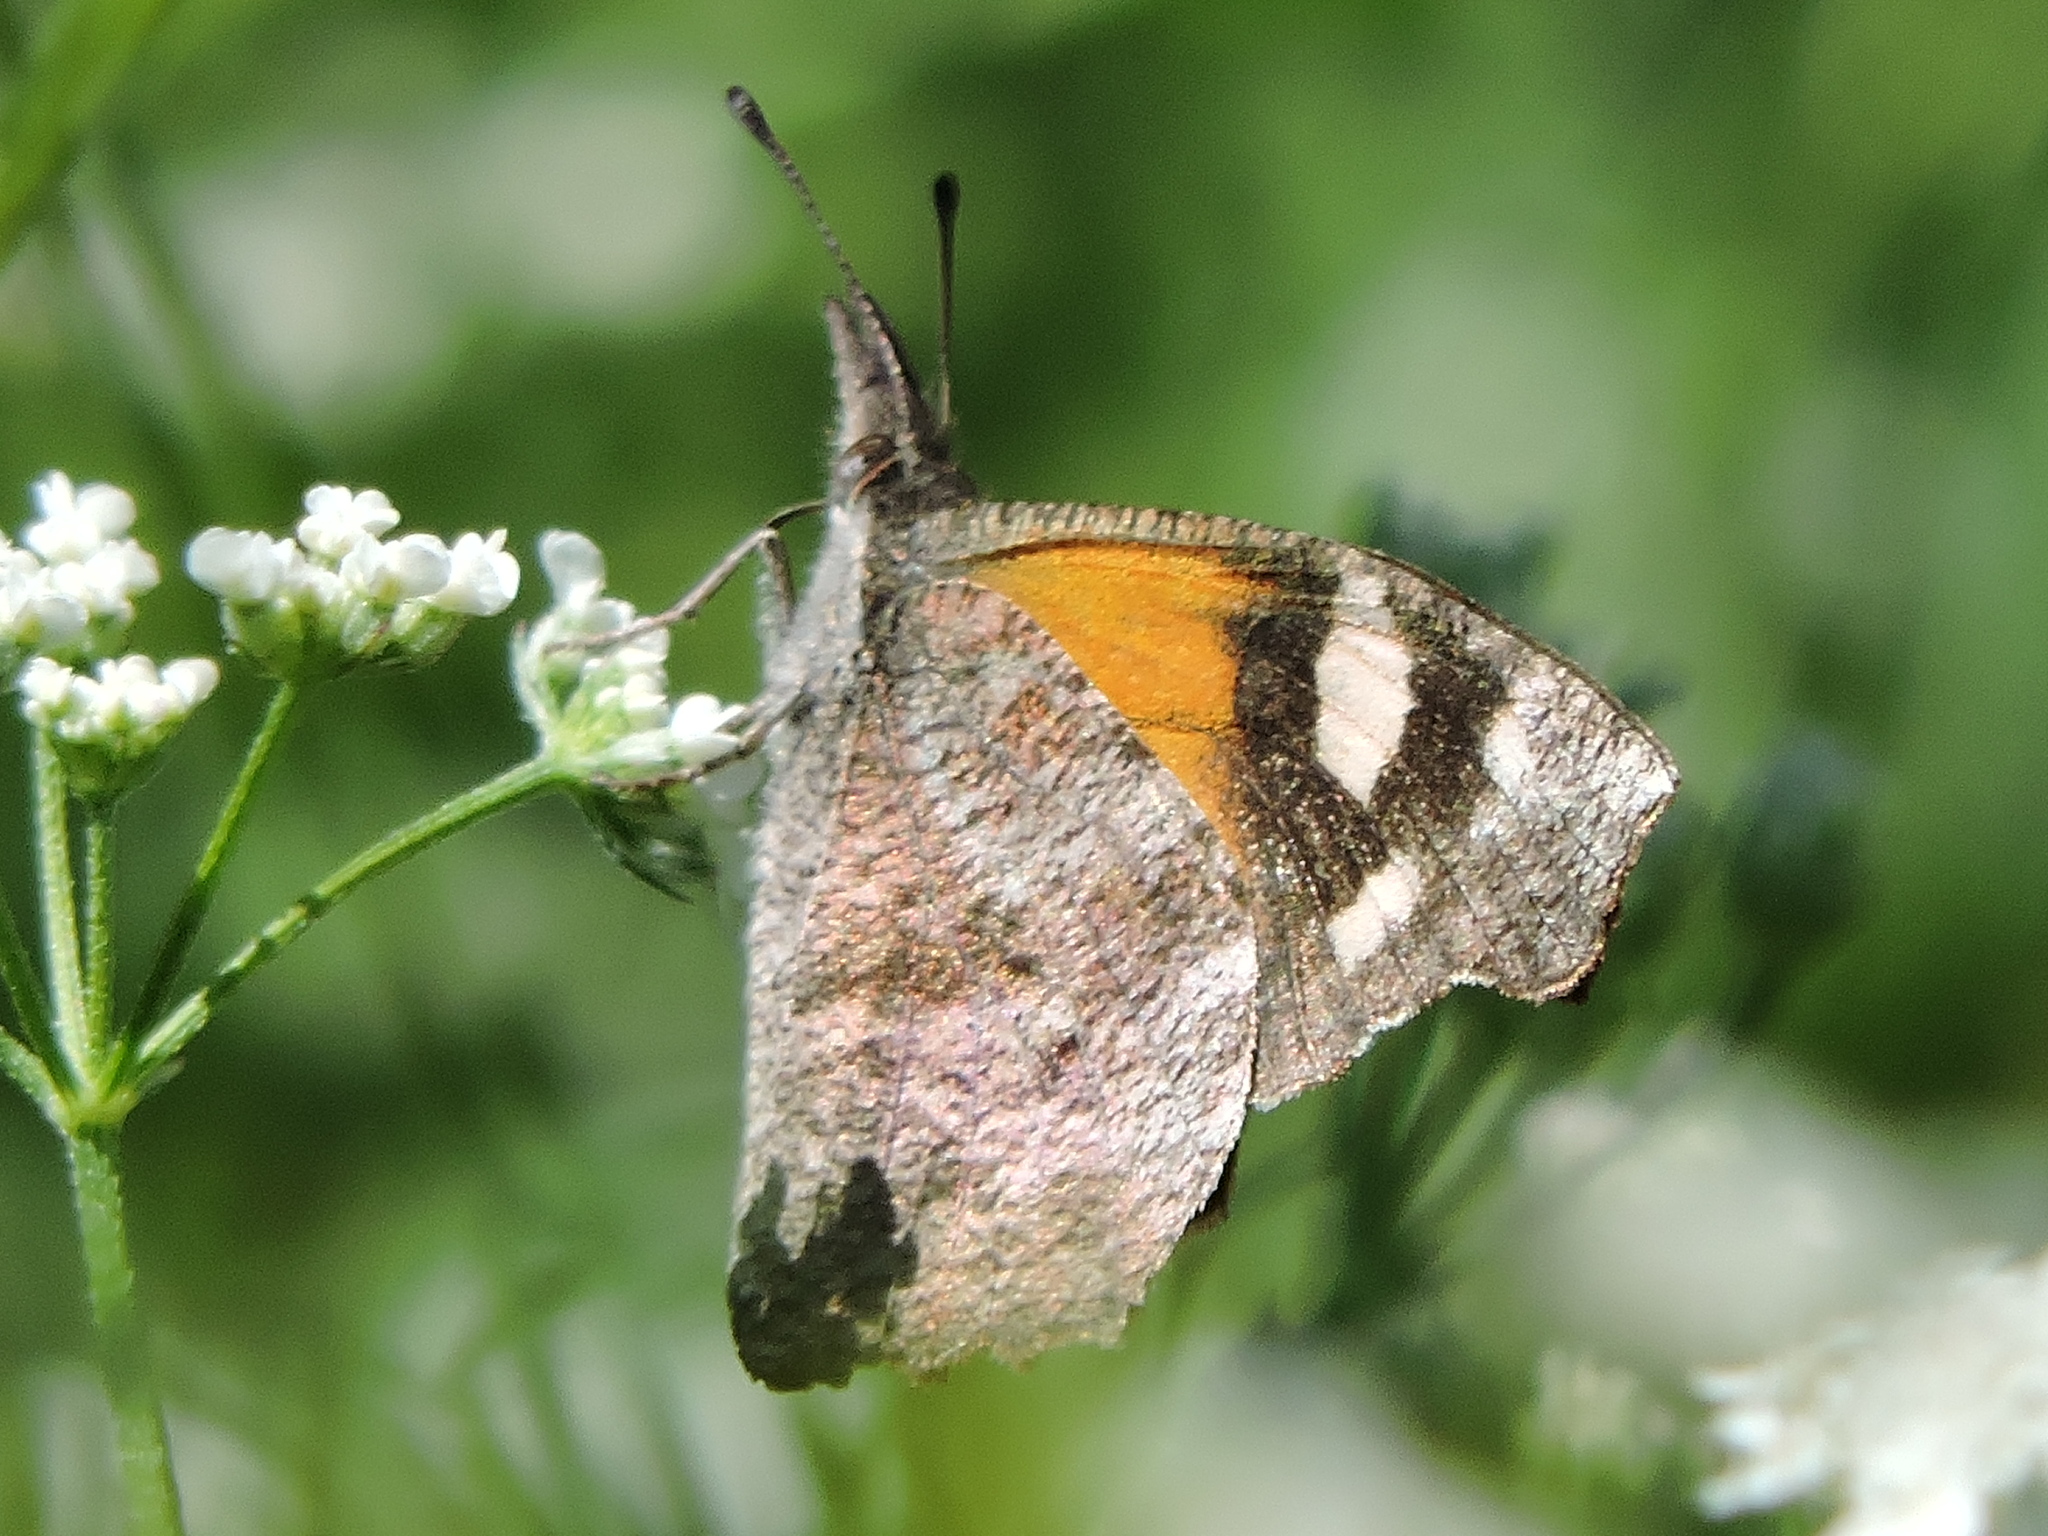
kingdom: Animalia
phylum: Arthropoda
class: Insecta
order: Lepidoptera
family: Nymphalidae
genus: Libytheana
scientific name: Libytheana carinenta
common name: American snout
